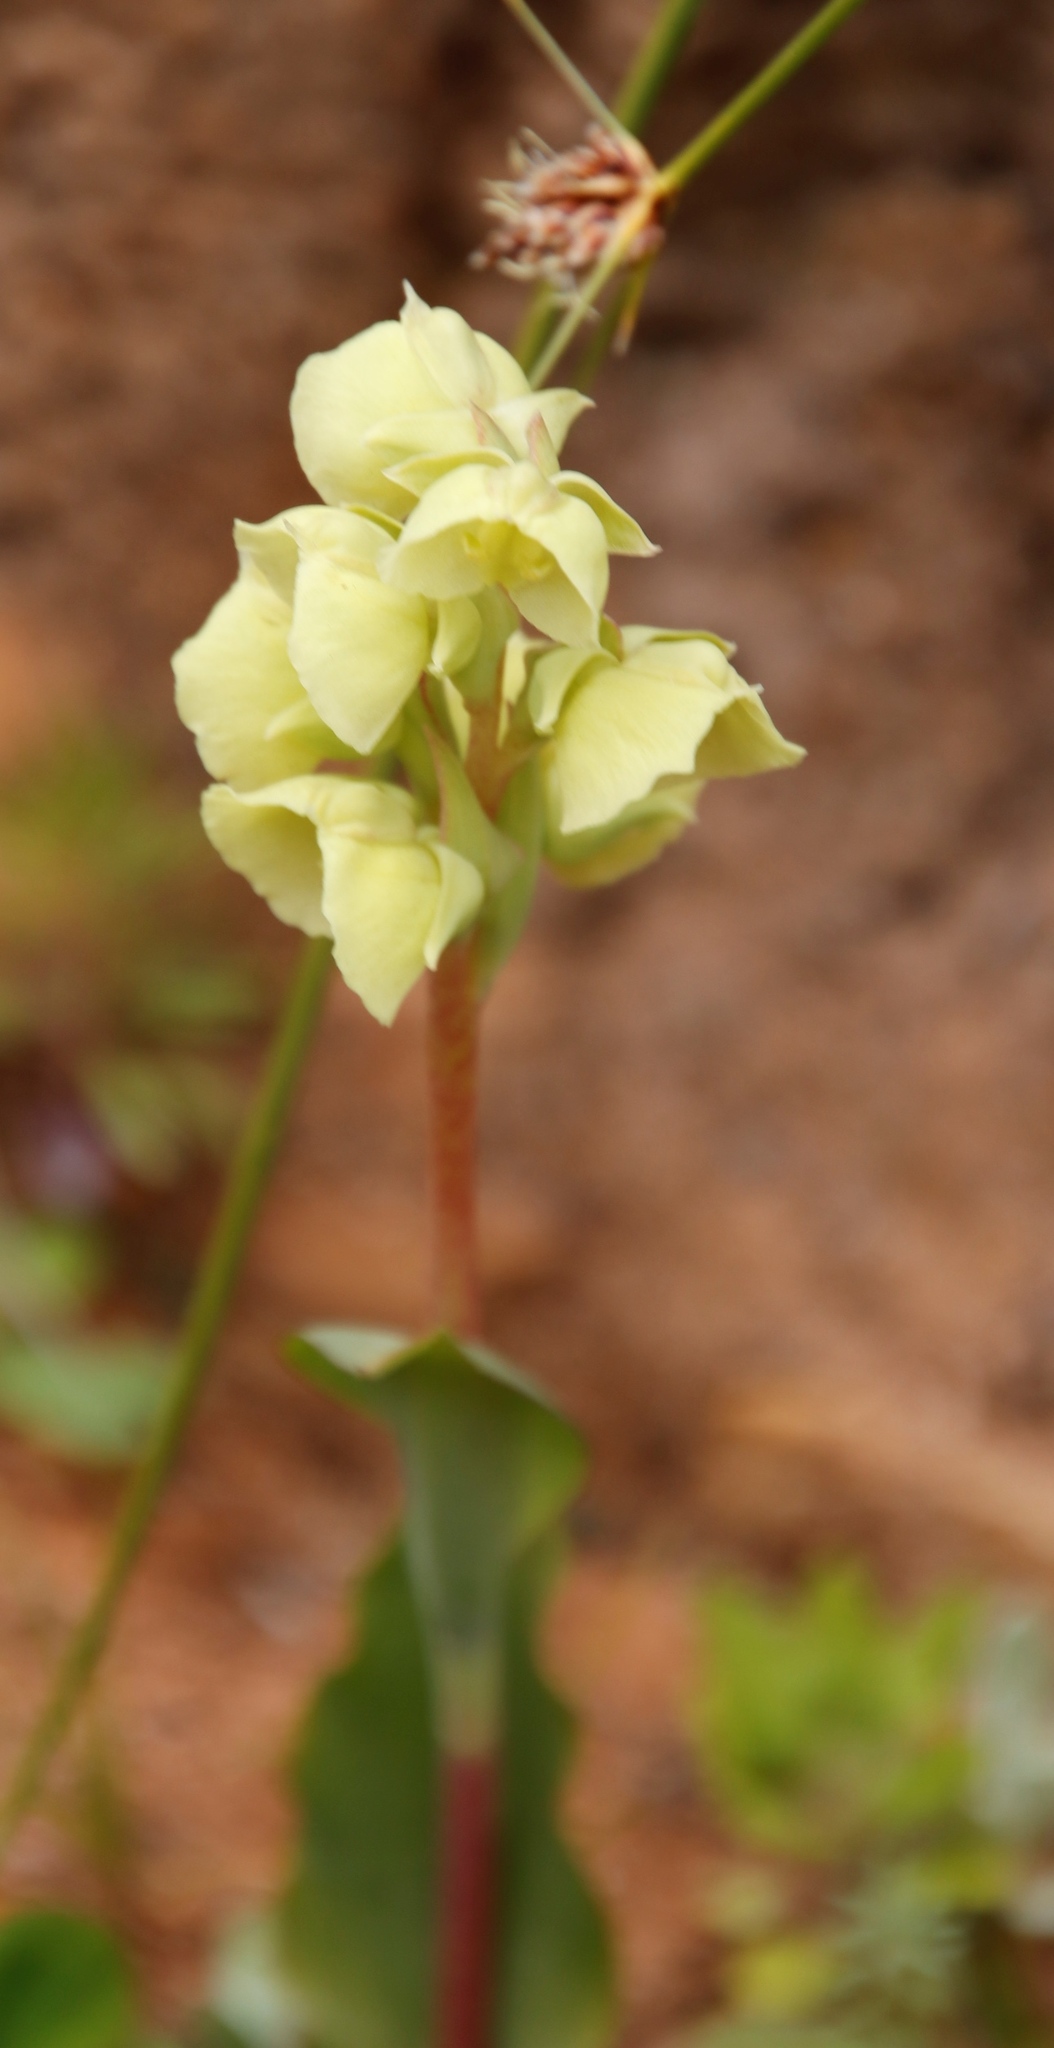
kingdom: Plantae
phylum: Tracheophyta
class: Liliopsida
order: Asparagales
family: Orchidaceae
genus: Pterygodium
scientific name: Pterygodium catholicum
